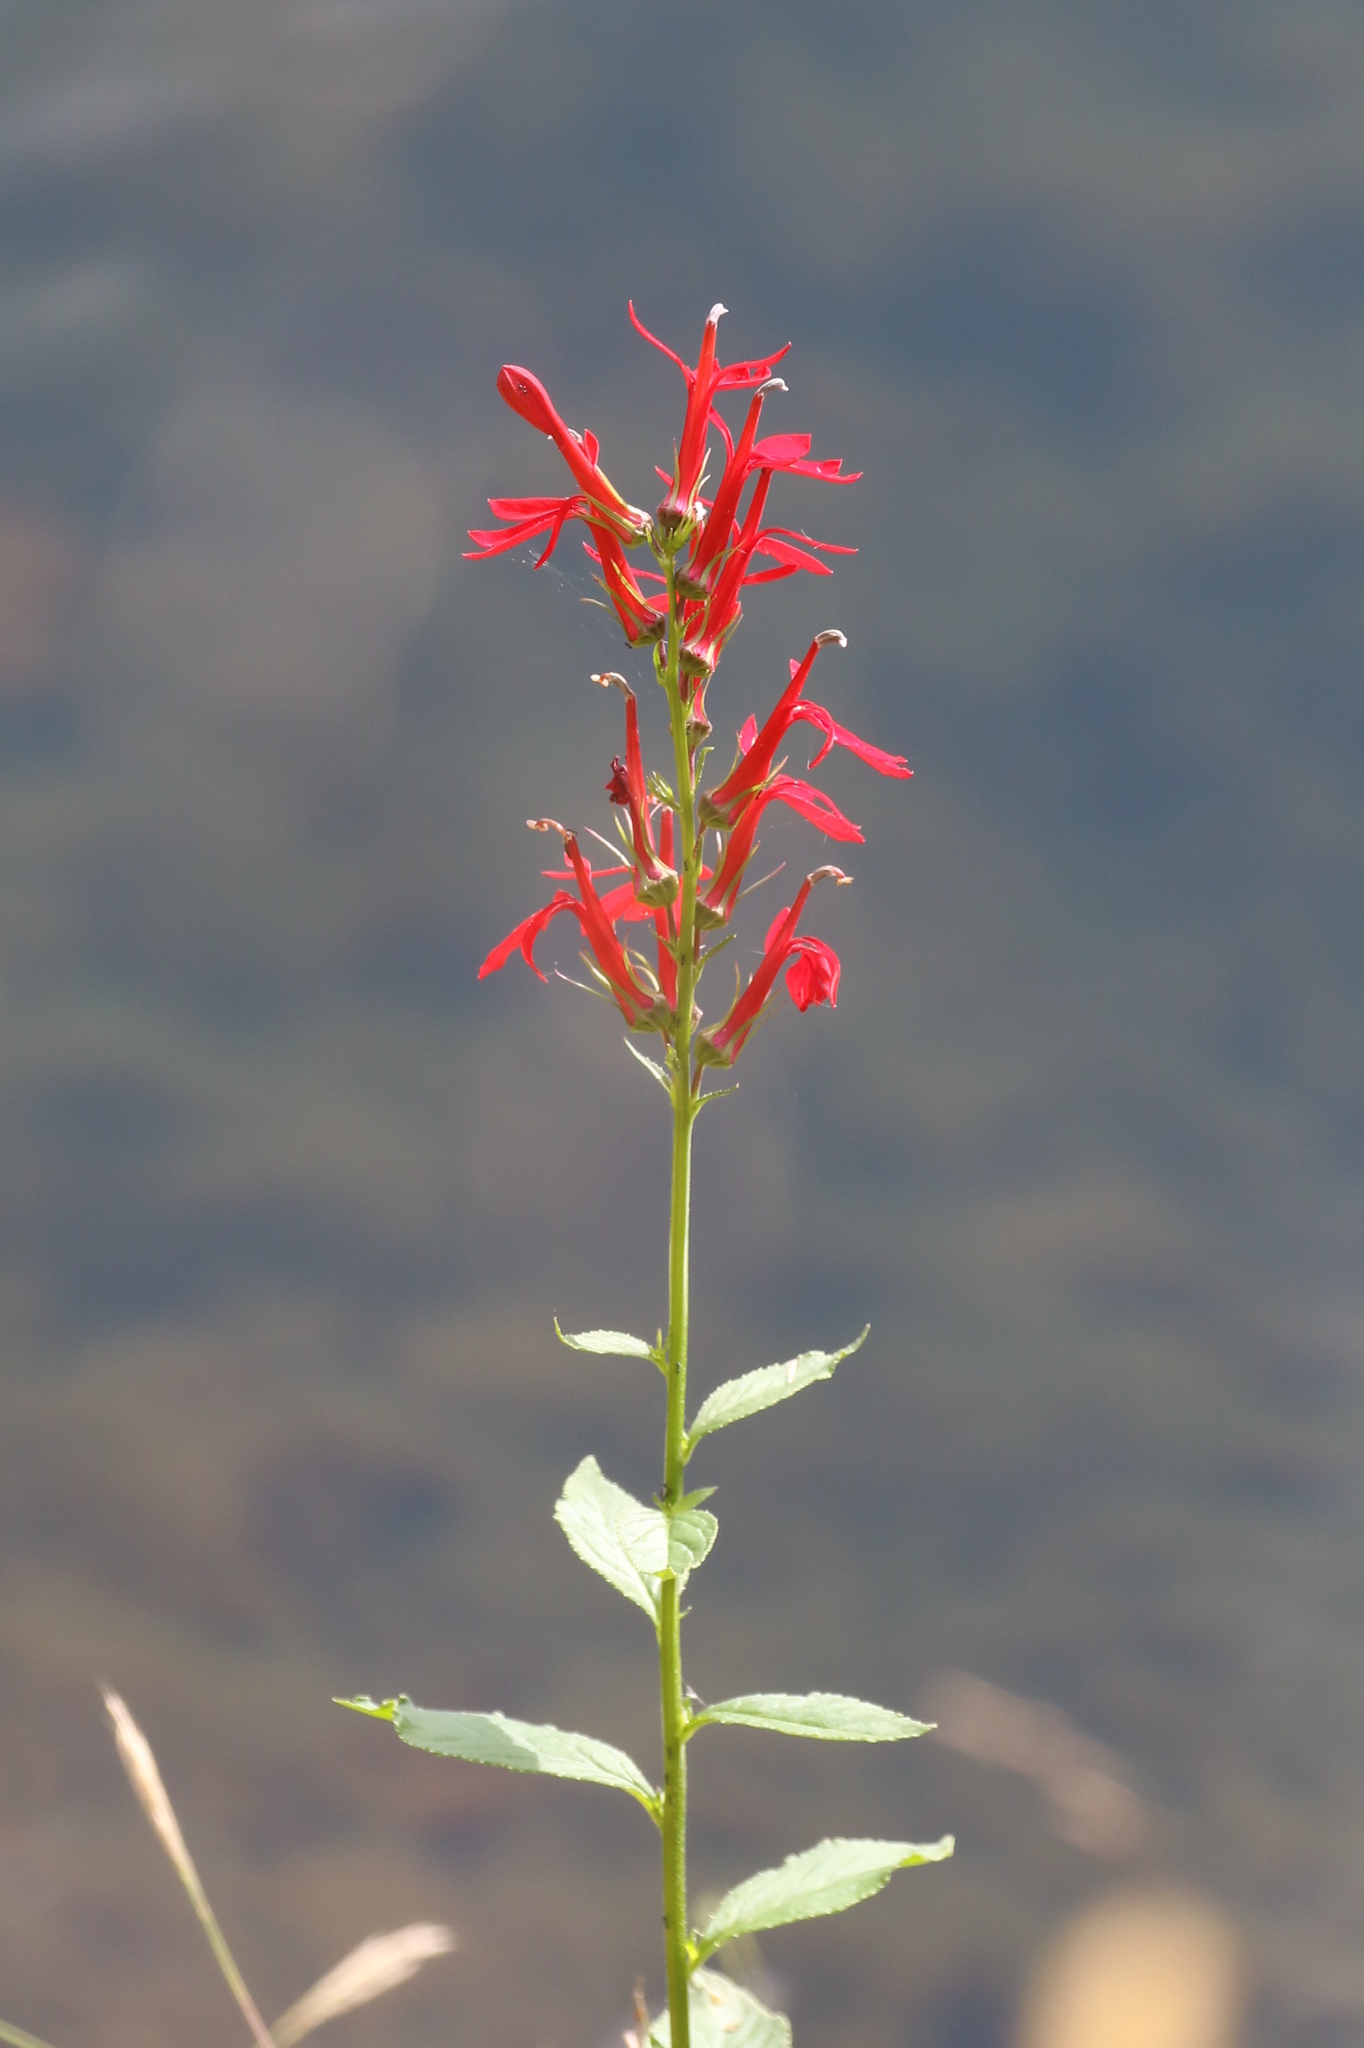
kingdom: Plantae
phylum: Tracheophyta
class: Magnoliopsida
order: Asterales
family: Campanulaceae
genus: Lobelia
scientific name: Lobelia cardinalis
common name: Cardinal flower
